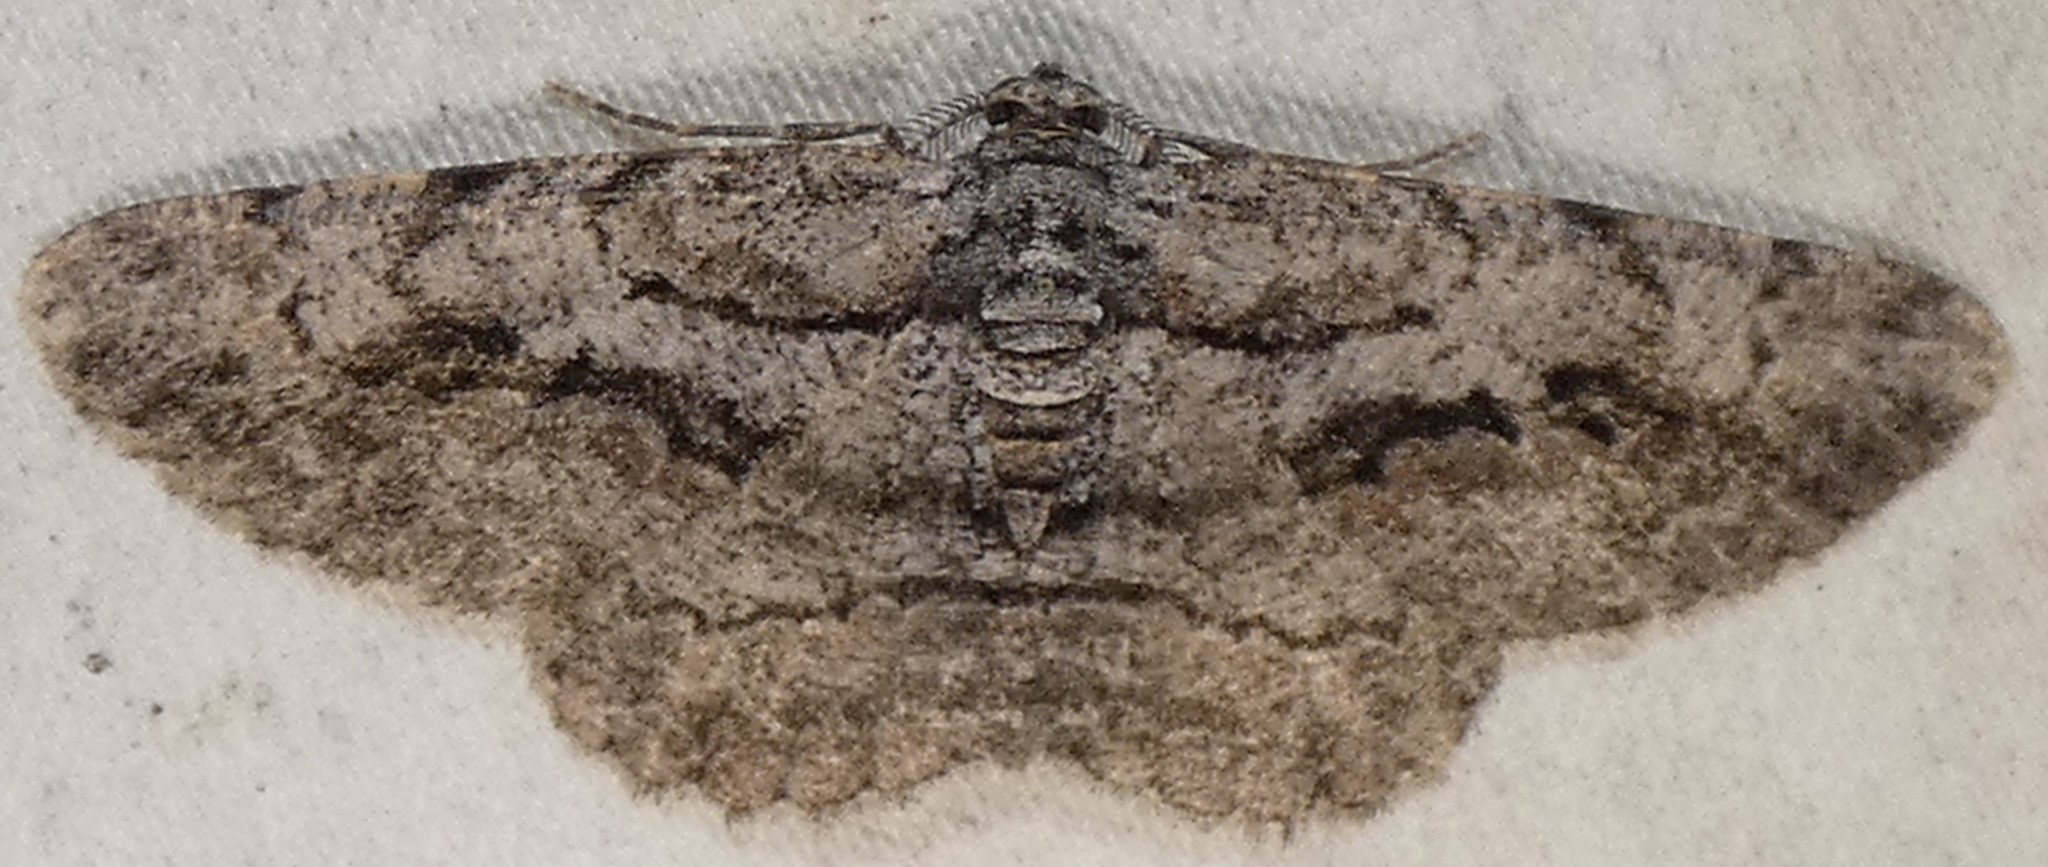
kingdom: Animalia
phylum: Arthropoda
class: Insecta
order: Lepidoptera
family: Geometridae
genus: Anavitrinella
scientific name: Anavitrinella pampinaria
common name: Common gray
